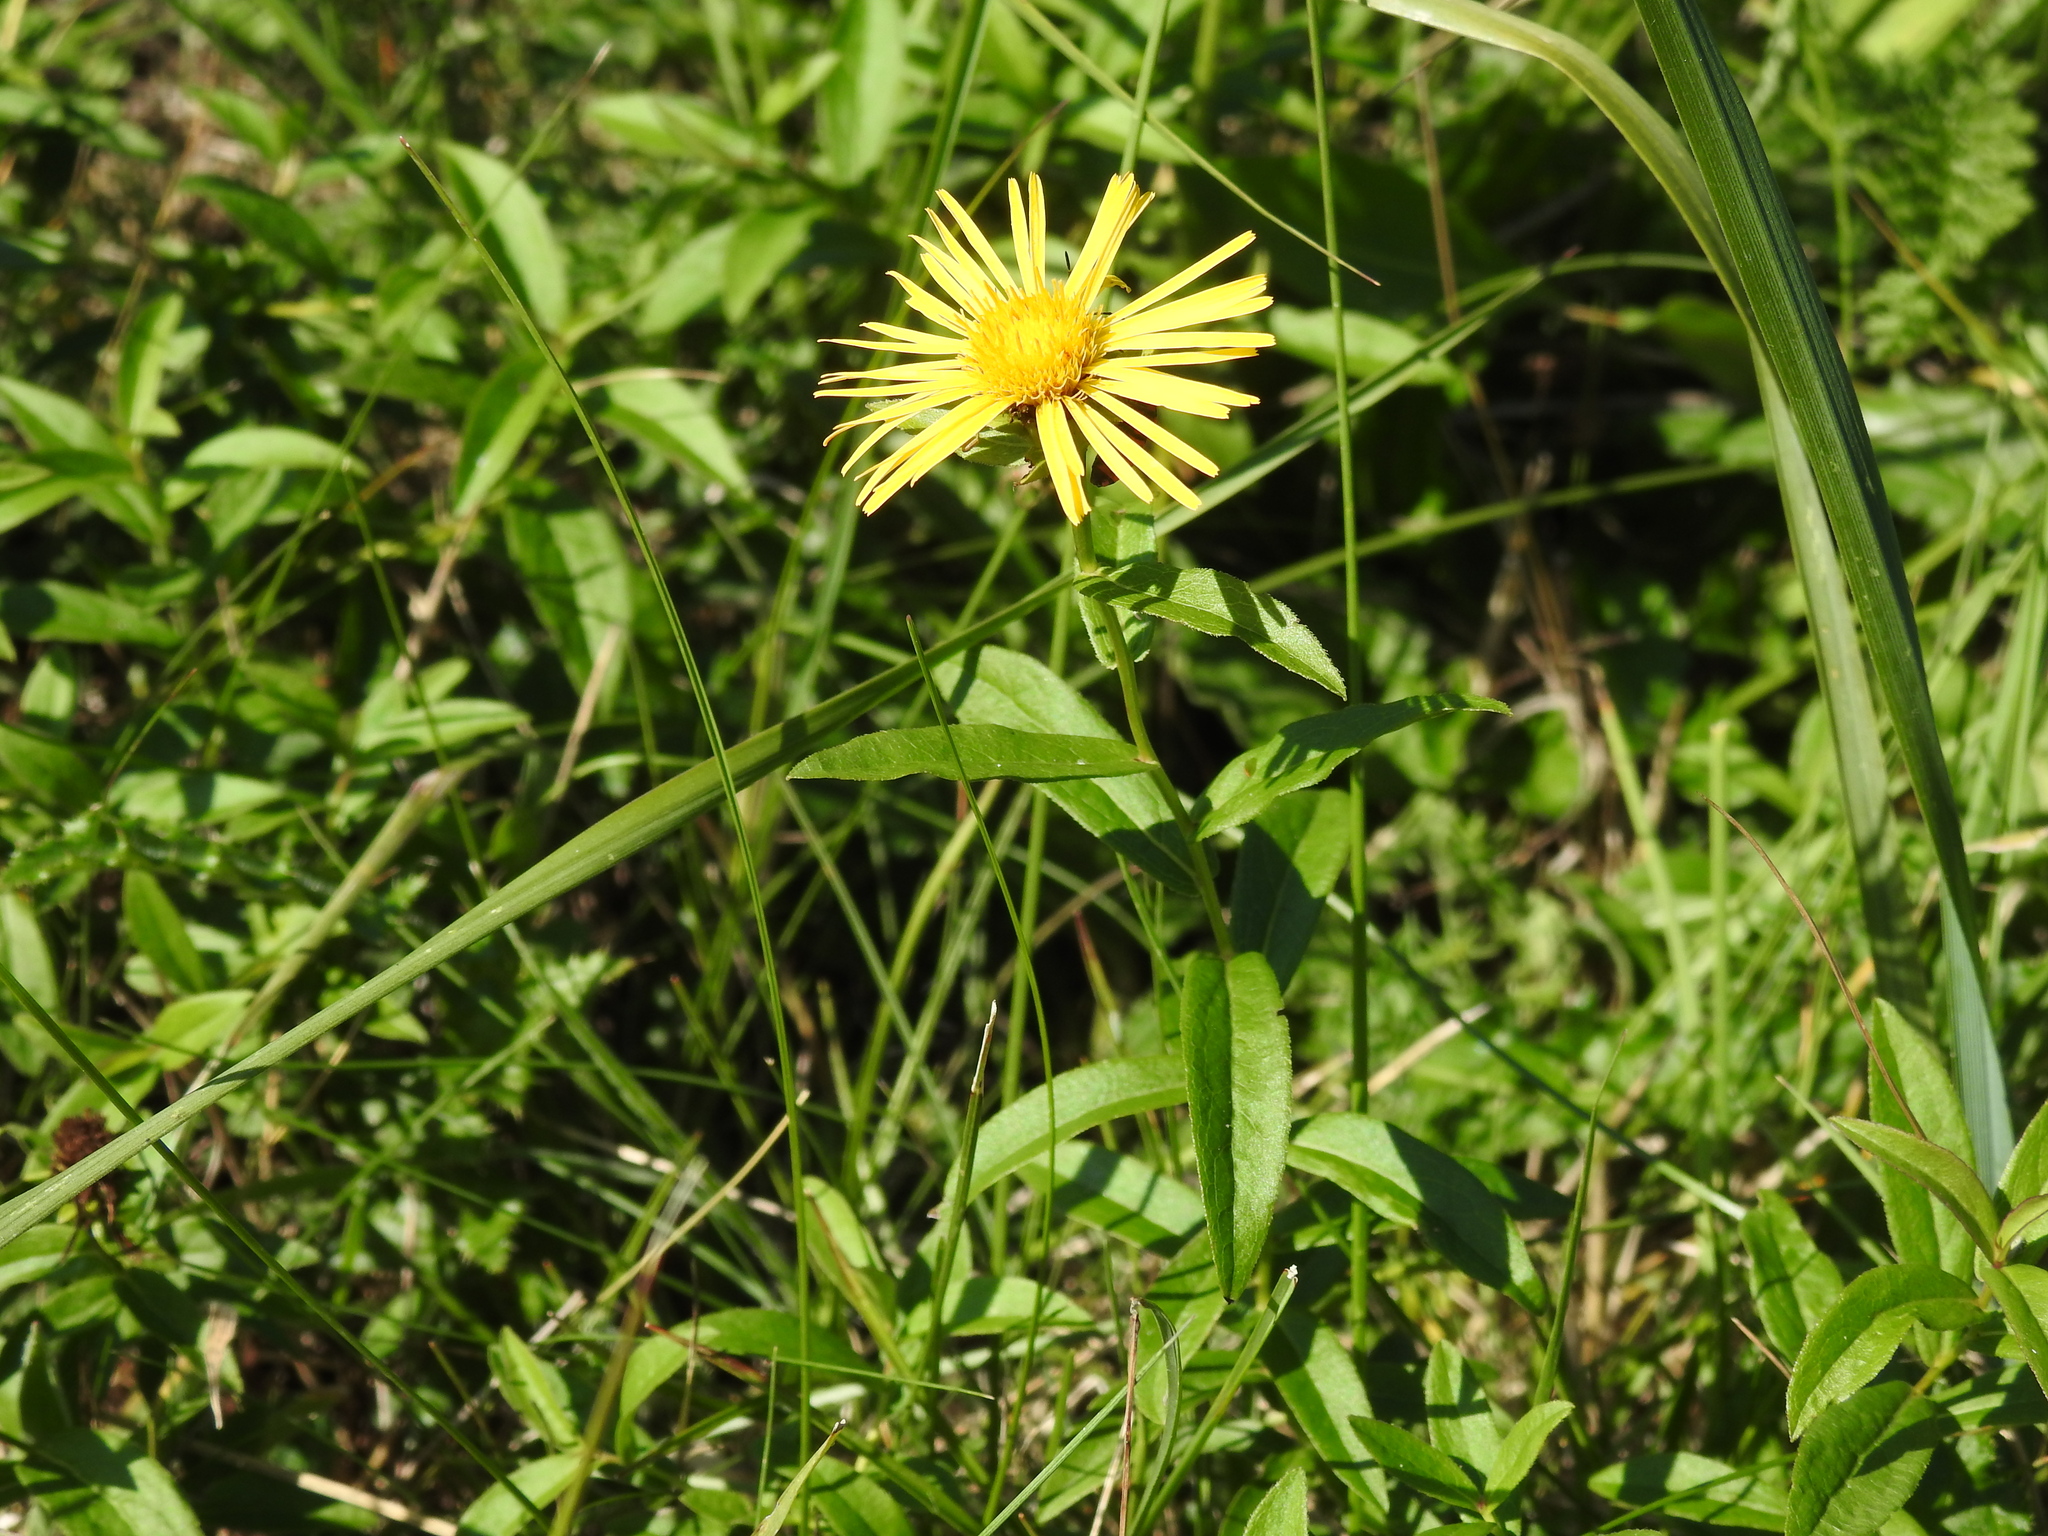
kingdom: Plantae
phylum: Tracheophyta
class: Magnoliopsida
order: Asterales
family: Asteraceae
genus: Pentanema
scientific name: Pentanema salicinum
